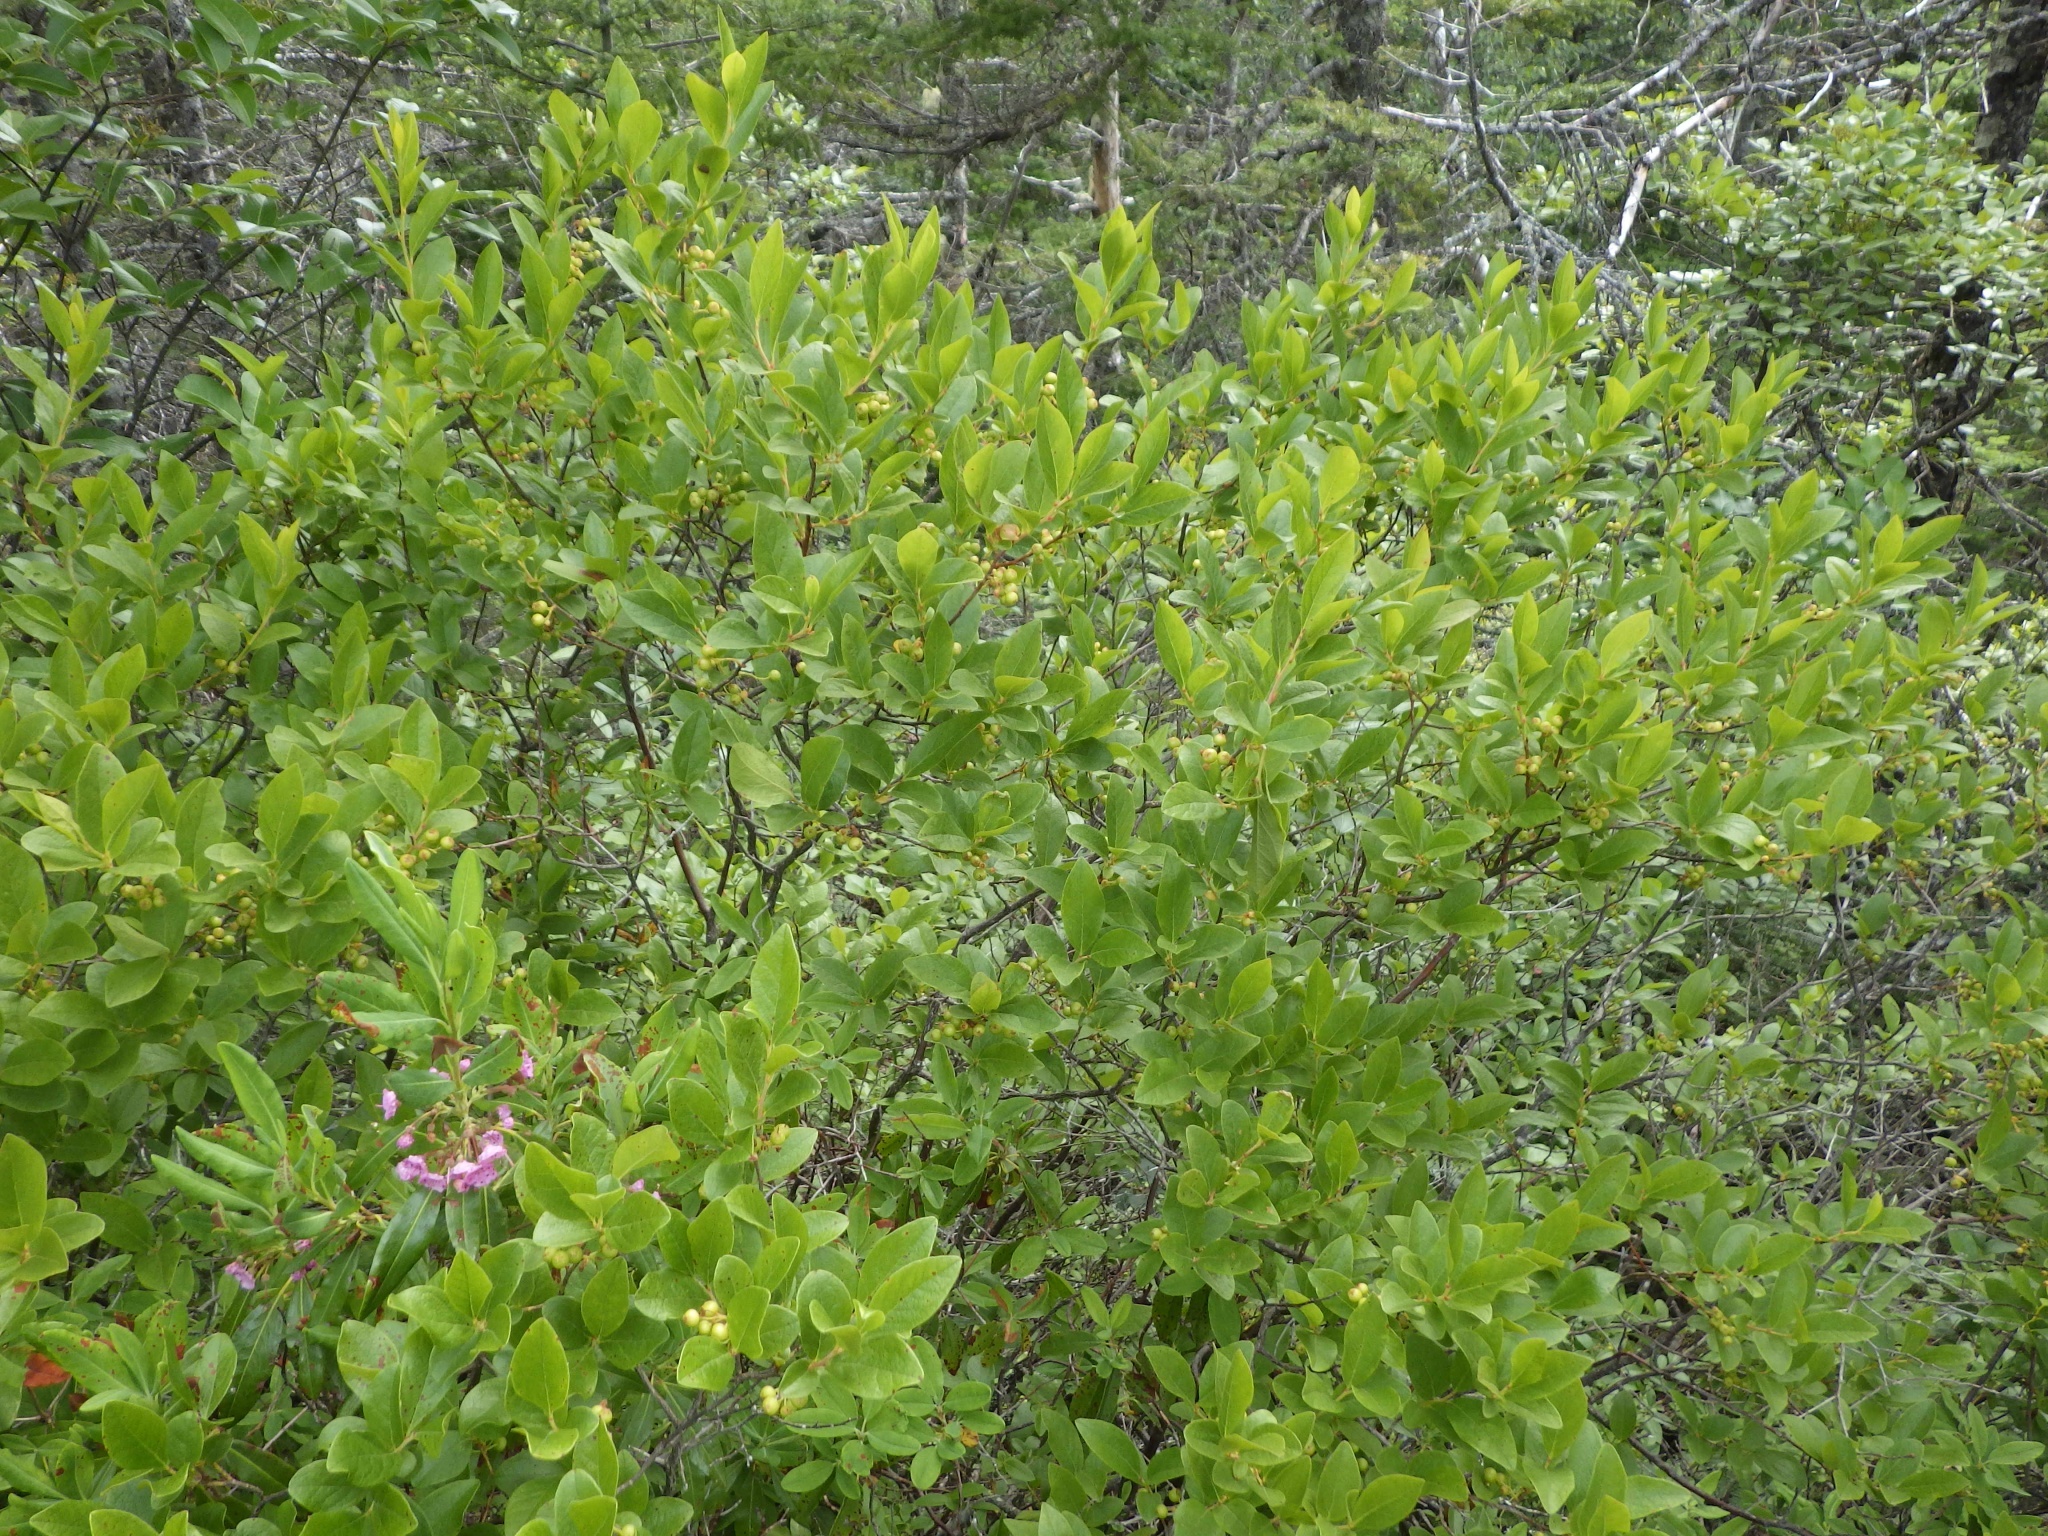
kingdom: Plantae
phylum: Tracheophyta
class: Magnoliopsida
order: Ericales
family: Ericaceae
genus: Gaylussacia
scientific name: Gaylussacia baccata
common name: Black huckleberry
